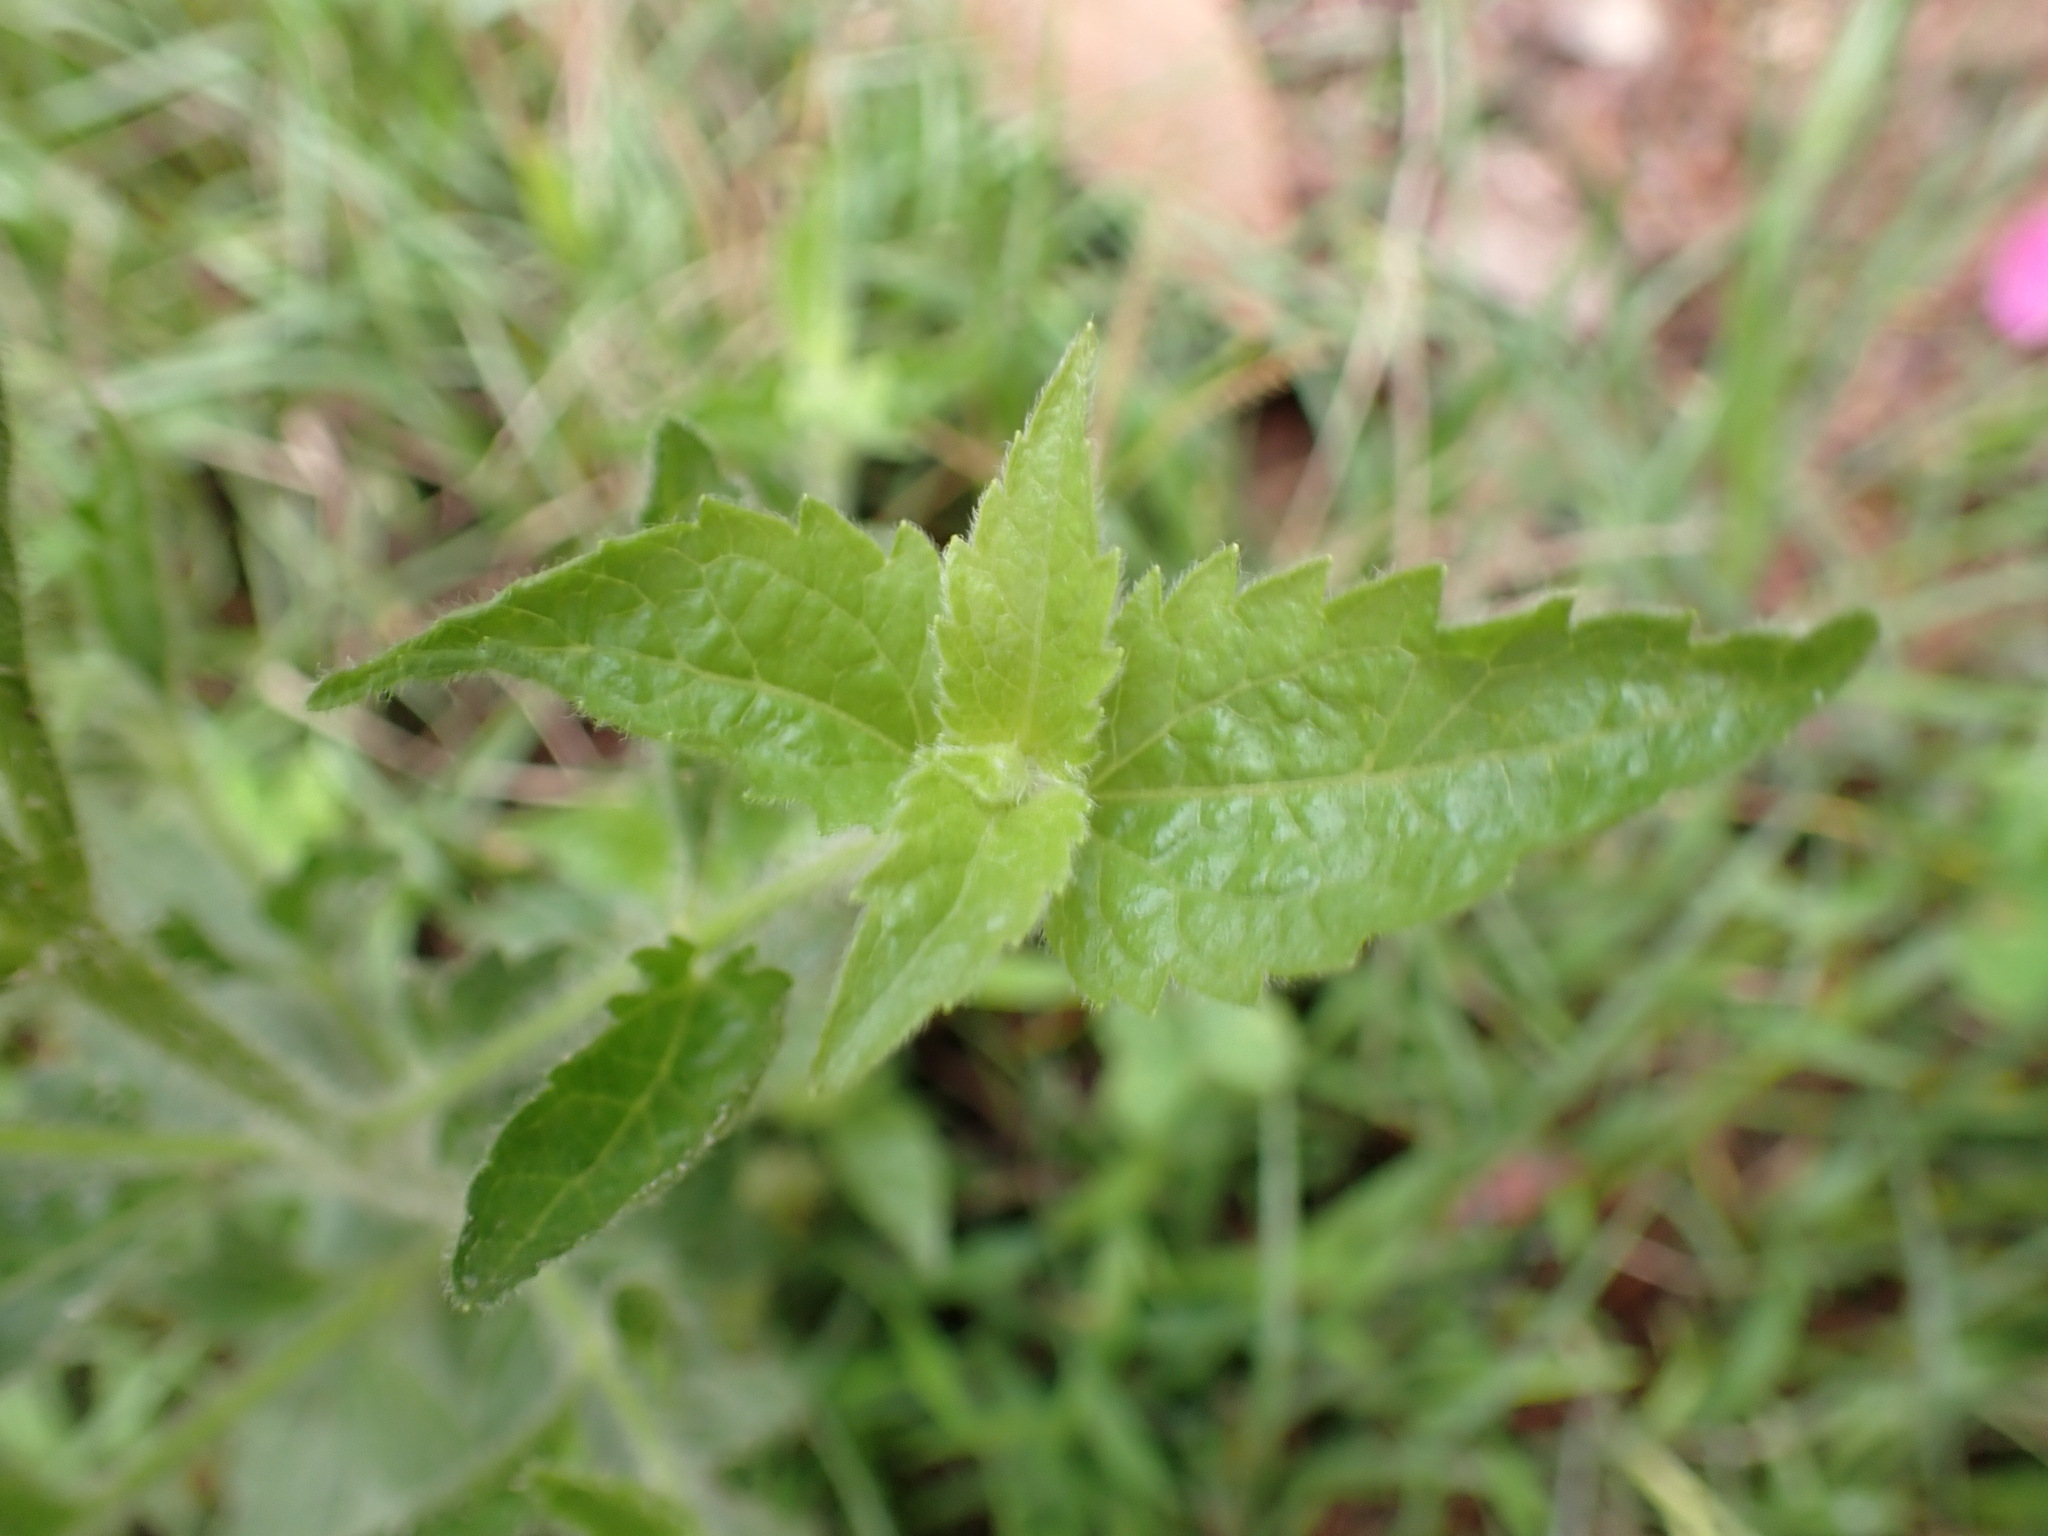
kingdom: Plantae
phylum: Tracheophyta
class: Magnoliopsida
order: Asterales
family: Asteraceae
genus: Praxelis
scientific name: Praxelis clematidea
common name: Praxelis
